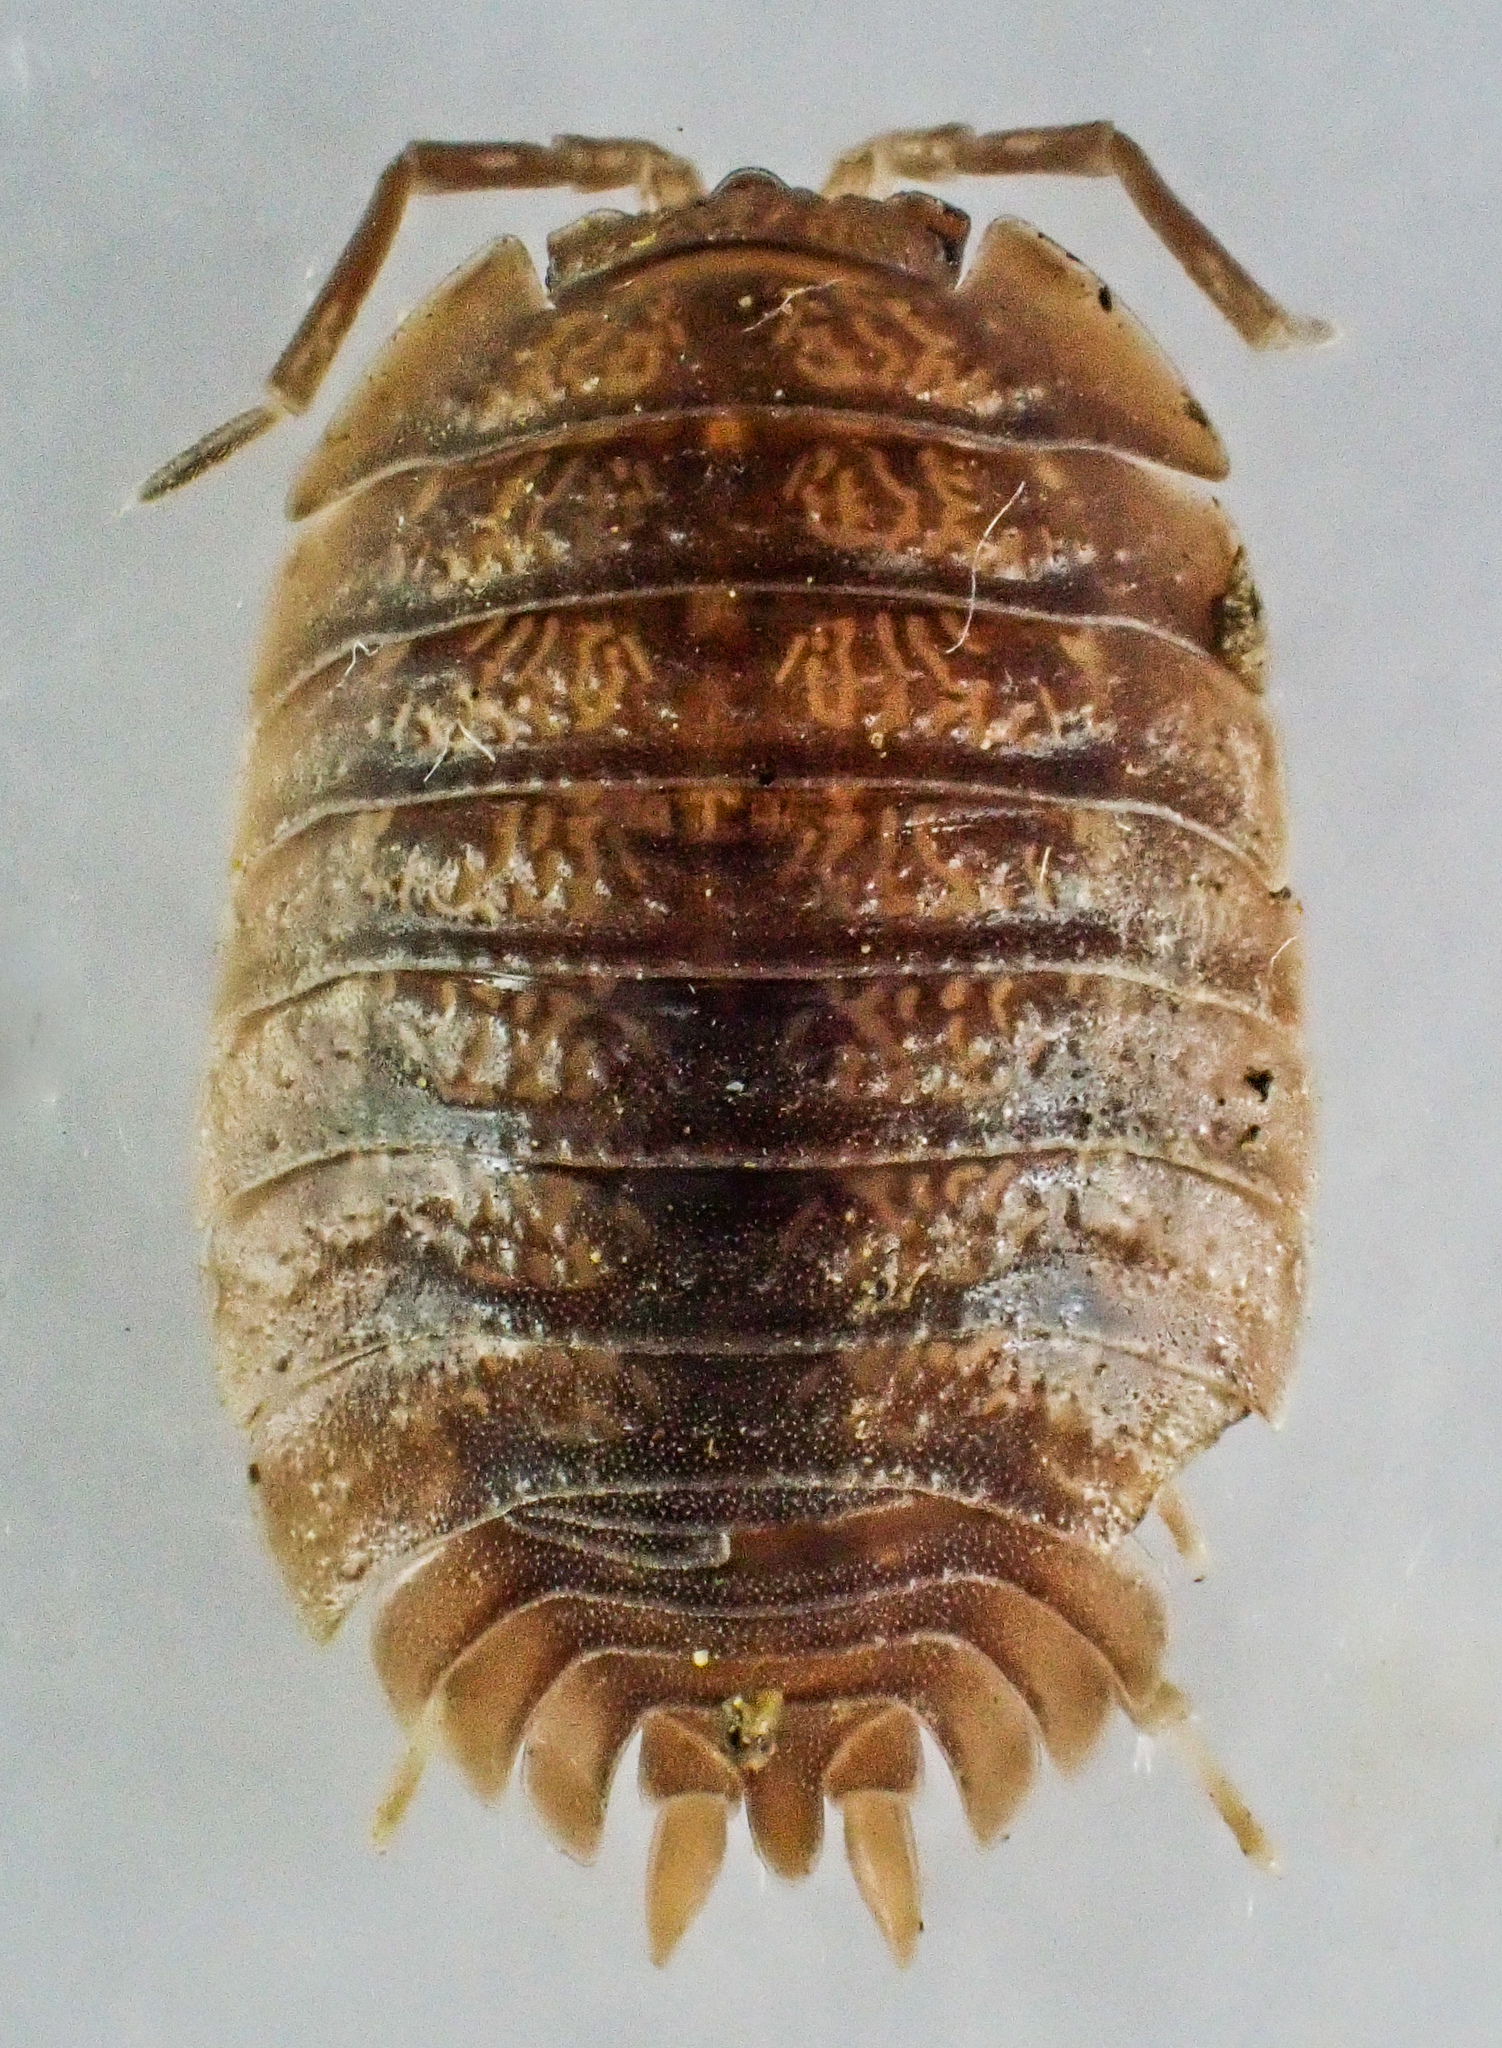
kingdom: Animalia
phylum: Arthropoda
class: Malacostraca
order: Isopoda
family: Porcellionidae
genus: Porcellio
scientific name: Porcellio dilatatus
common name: Isopod
